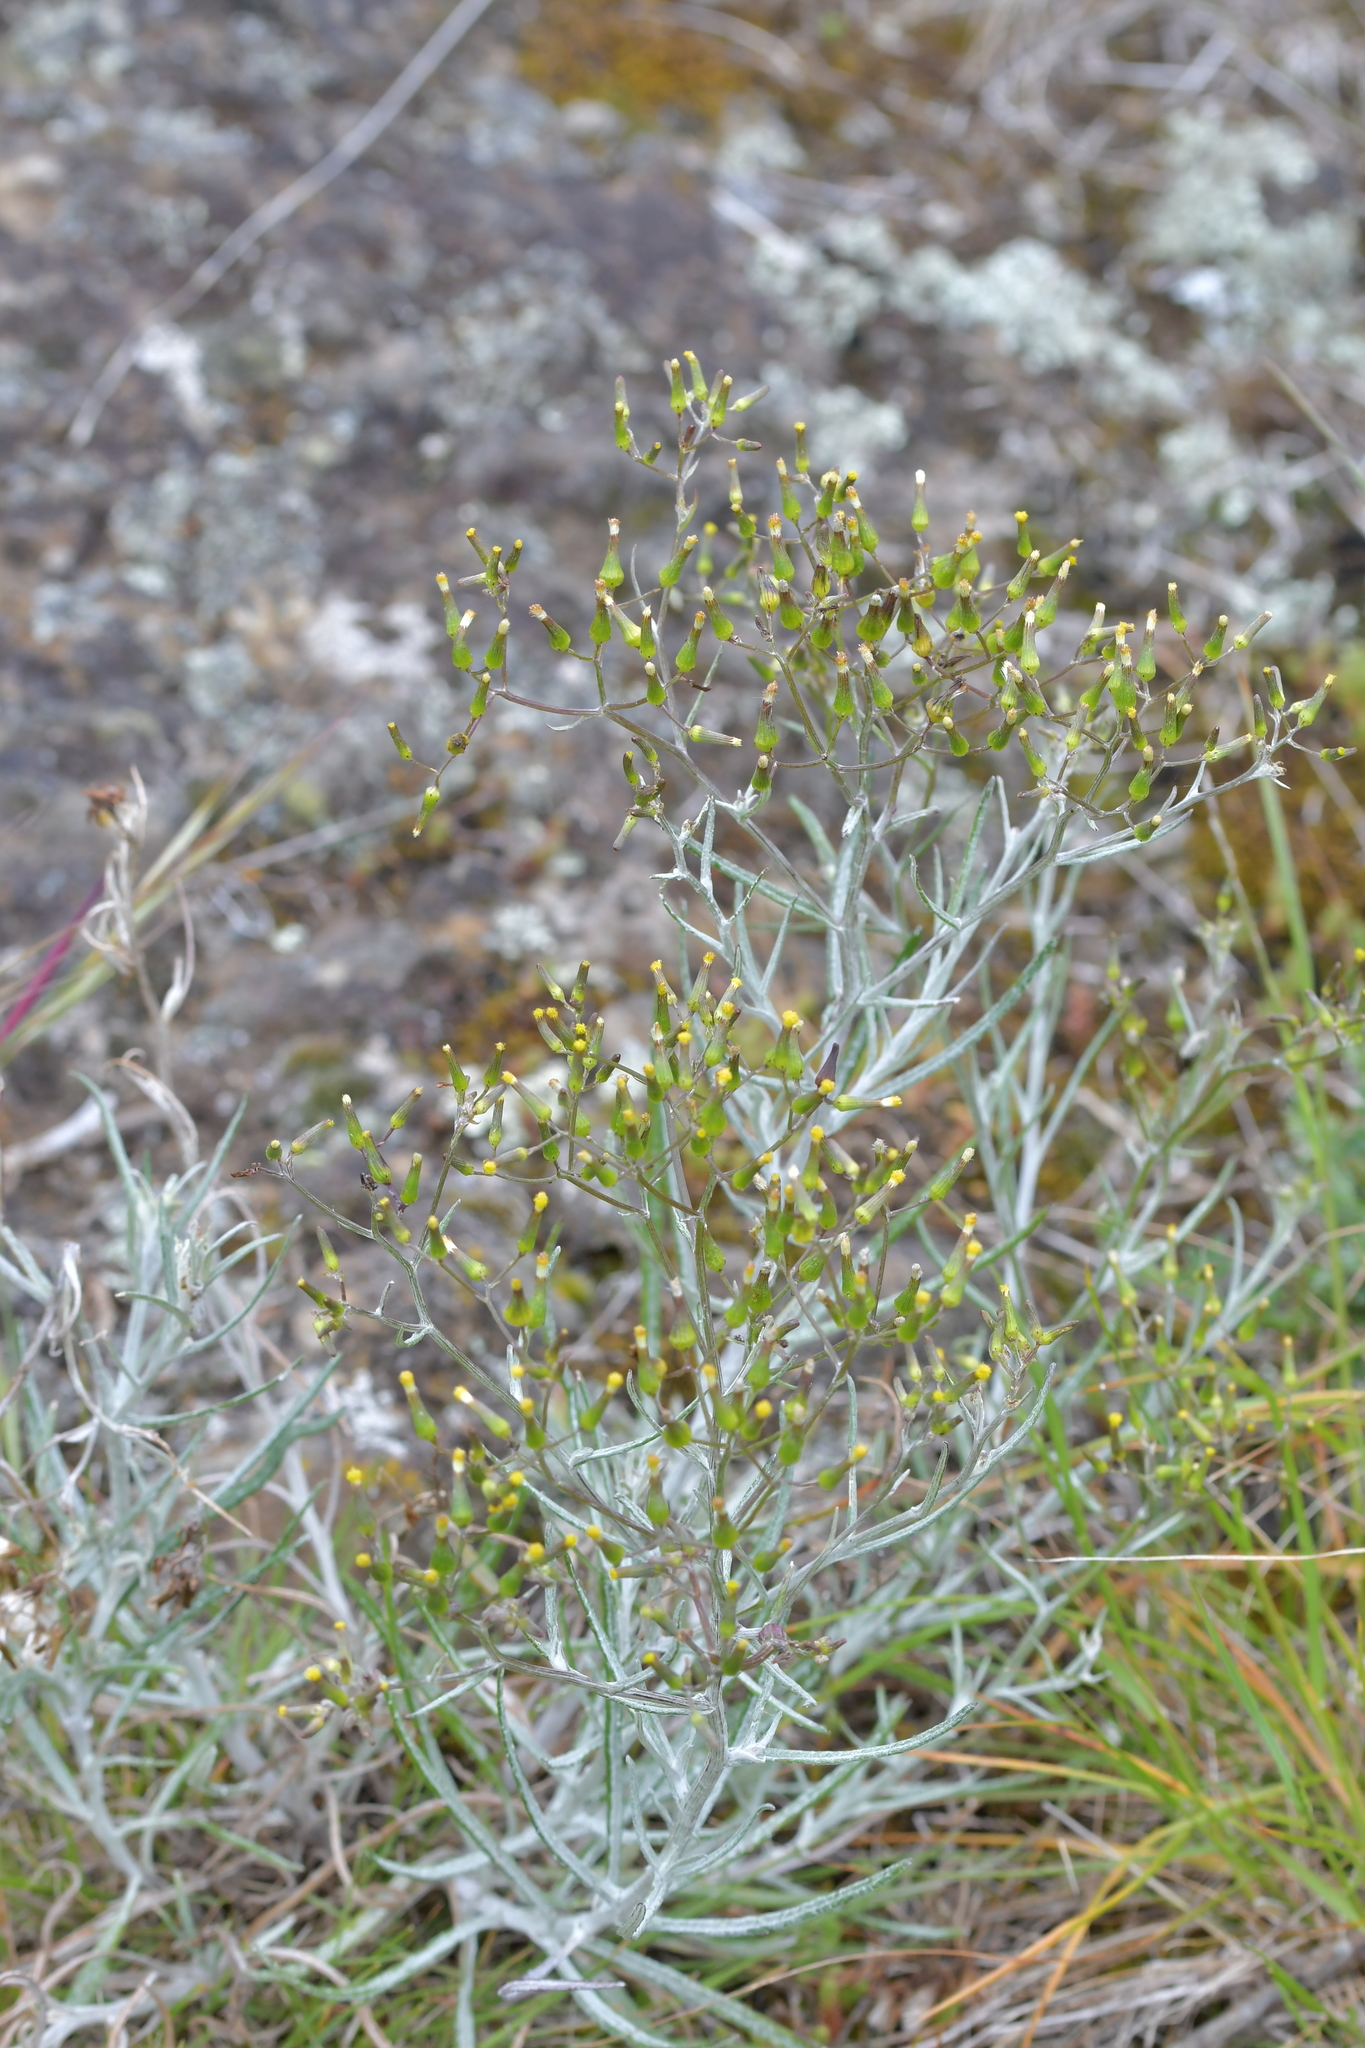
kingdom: Plantae
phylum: Tracheophyta
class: Magnoliopsida
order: Asterales
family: Asteraceae
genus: Senecio
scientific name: Senecio quadridentatus
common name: Cotton fireweed
